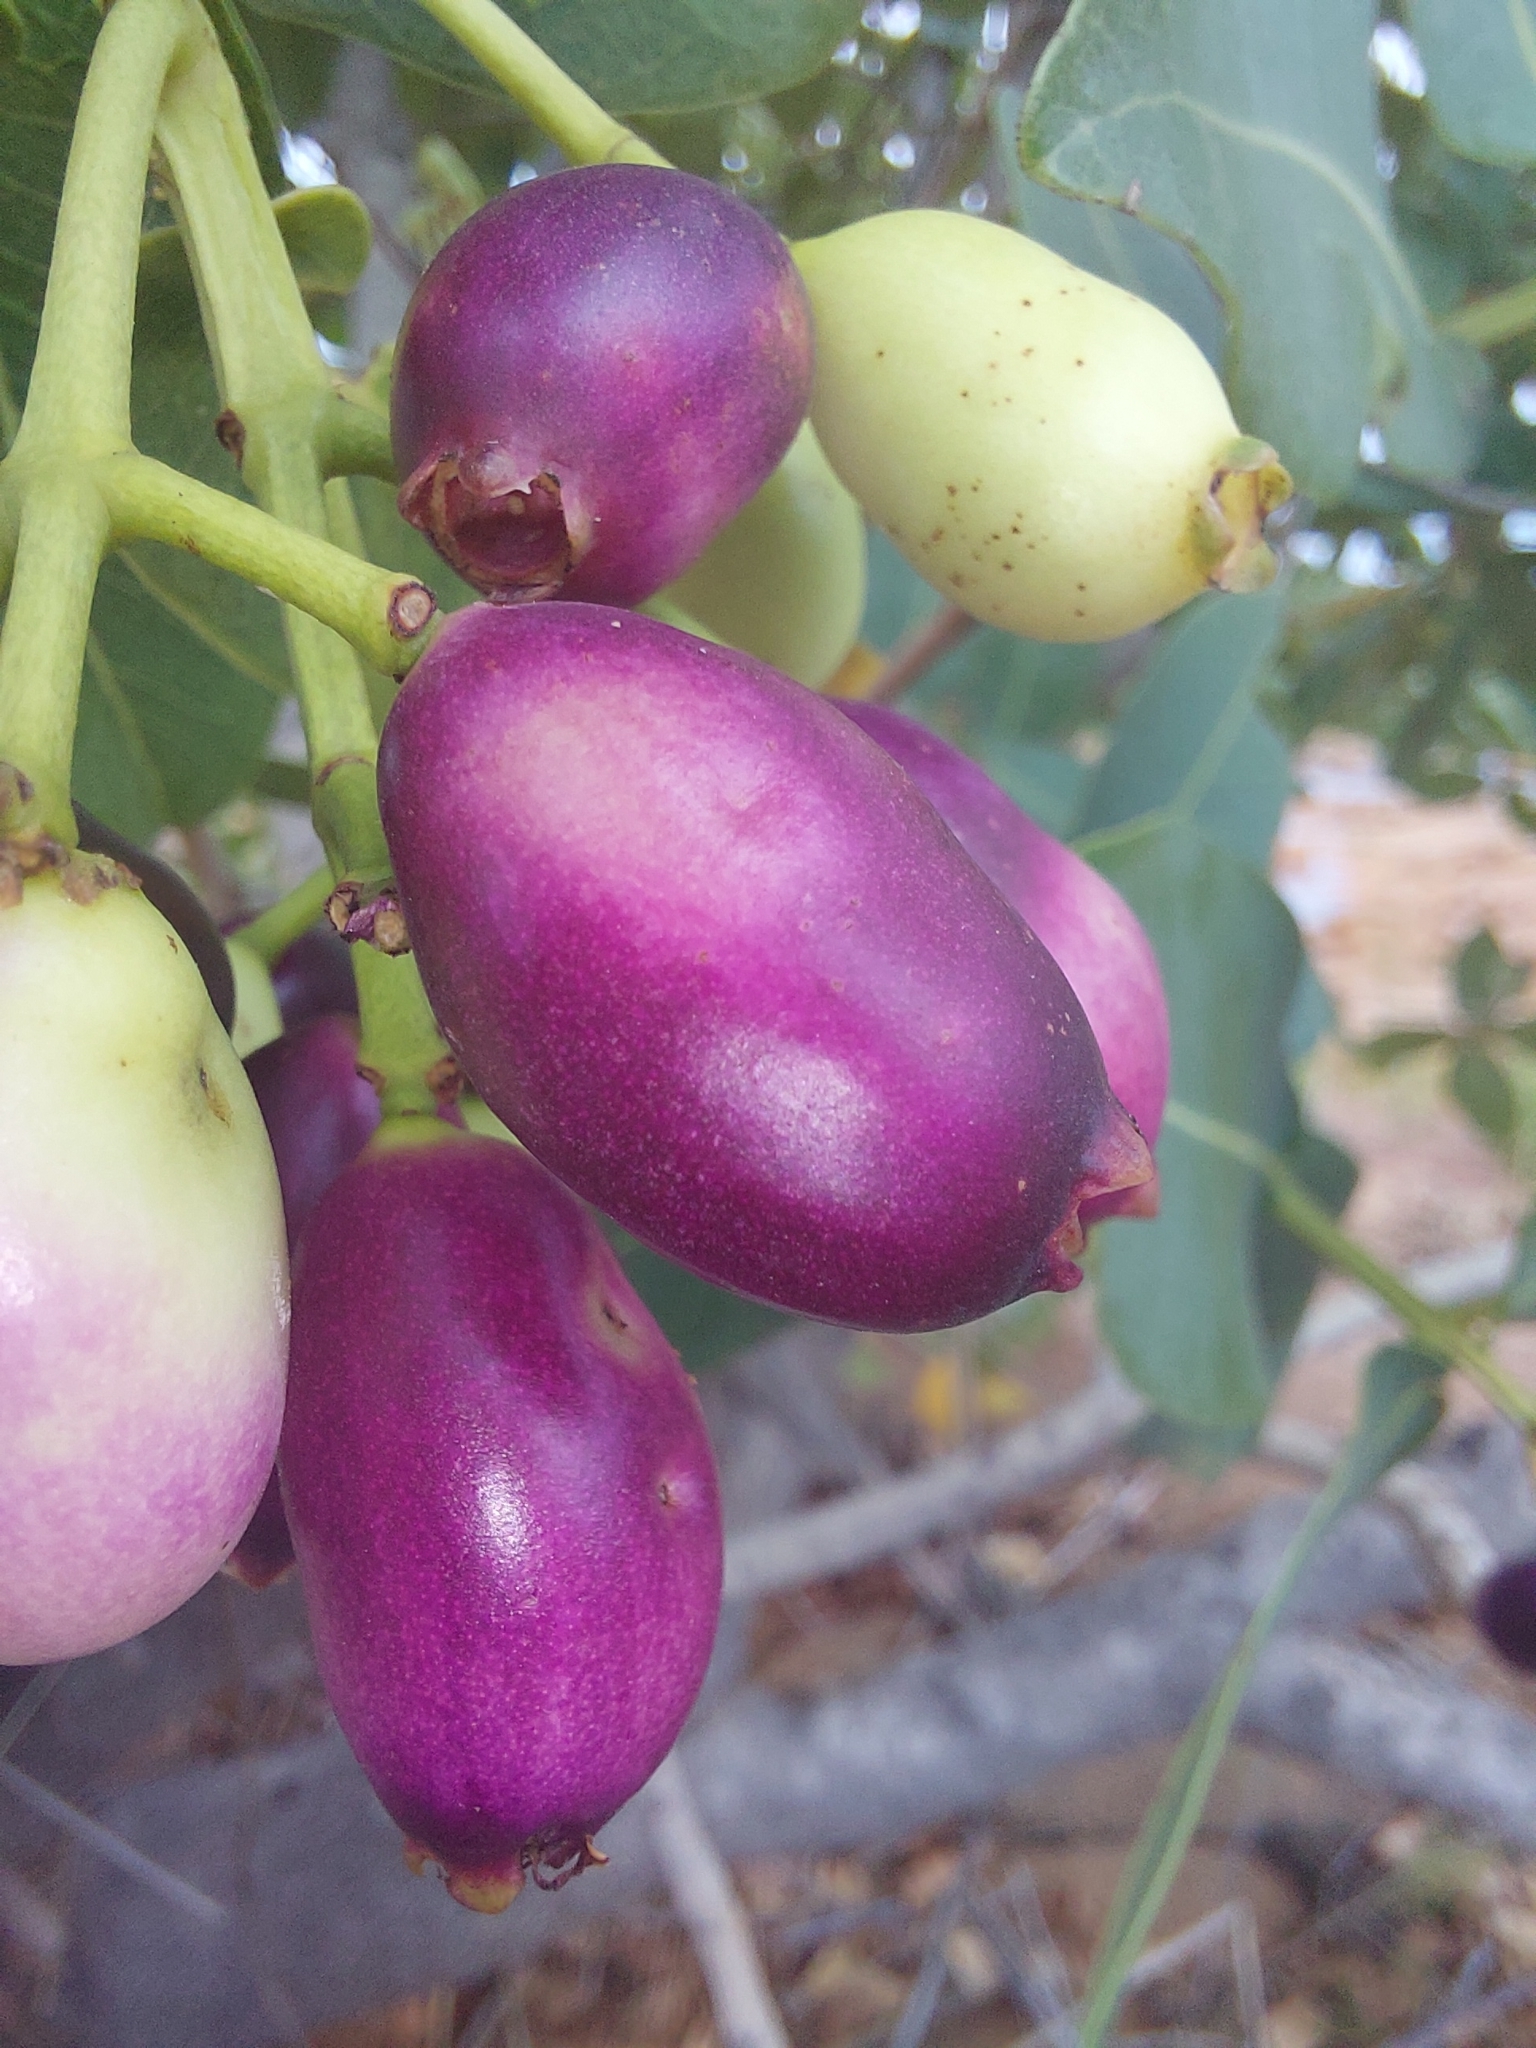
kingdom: Plantae
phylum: Tracheophyta
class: Magnoliopsida
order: Myrtales
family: Myrtaceae
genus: Syzygium
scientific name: Syzygium intermedium
